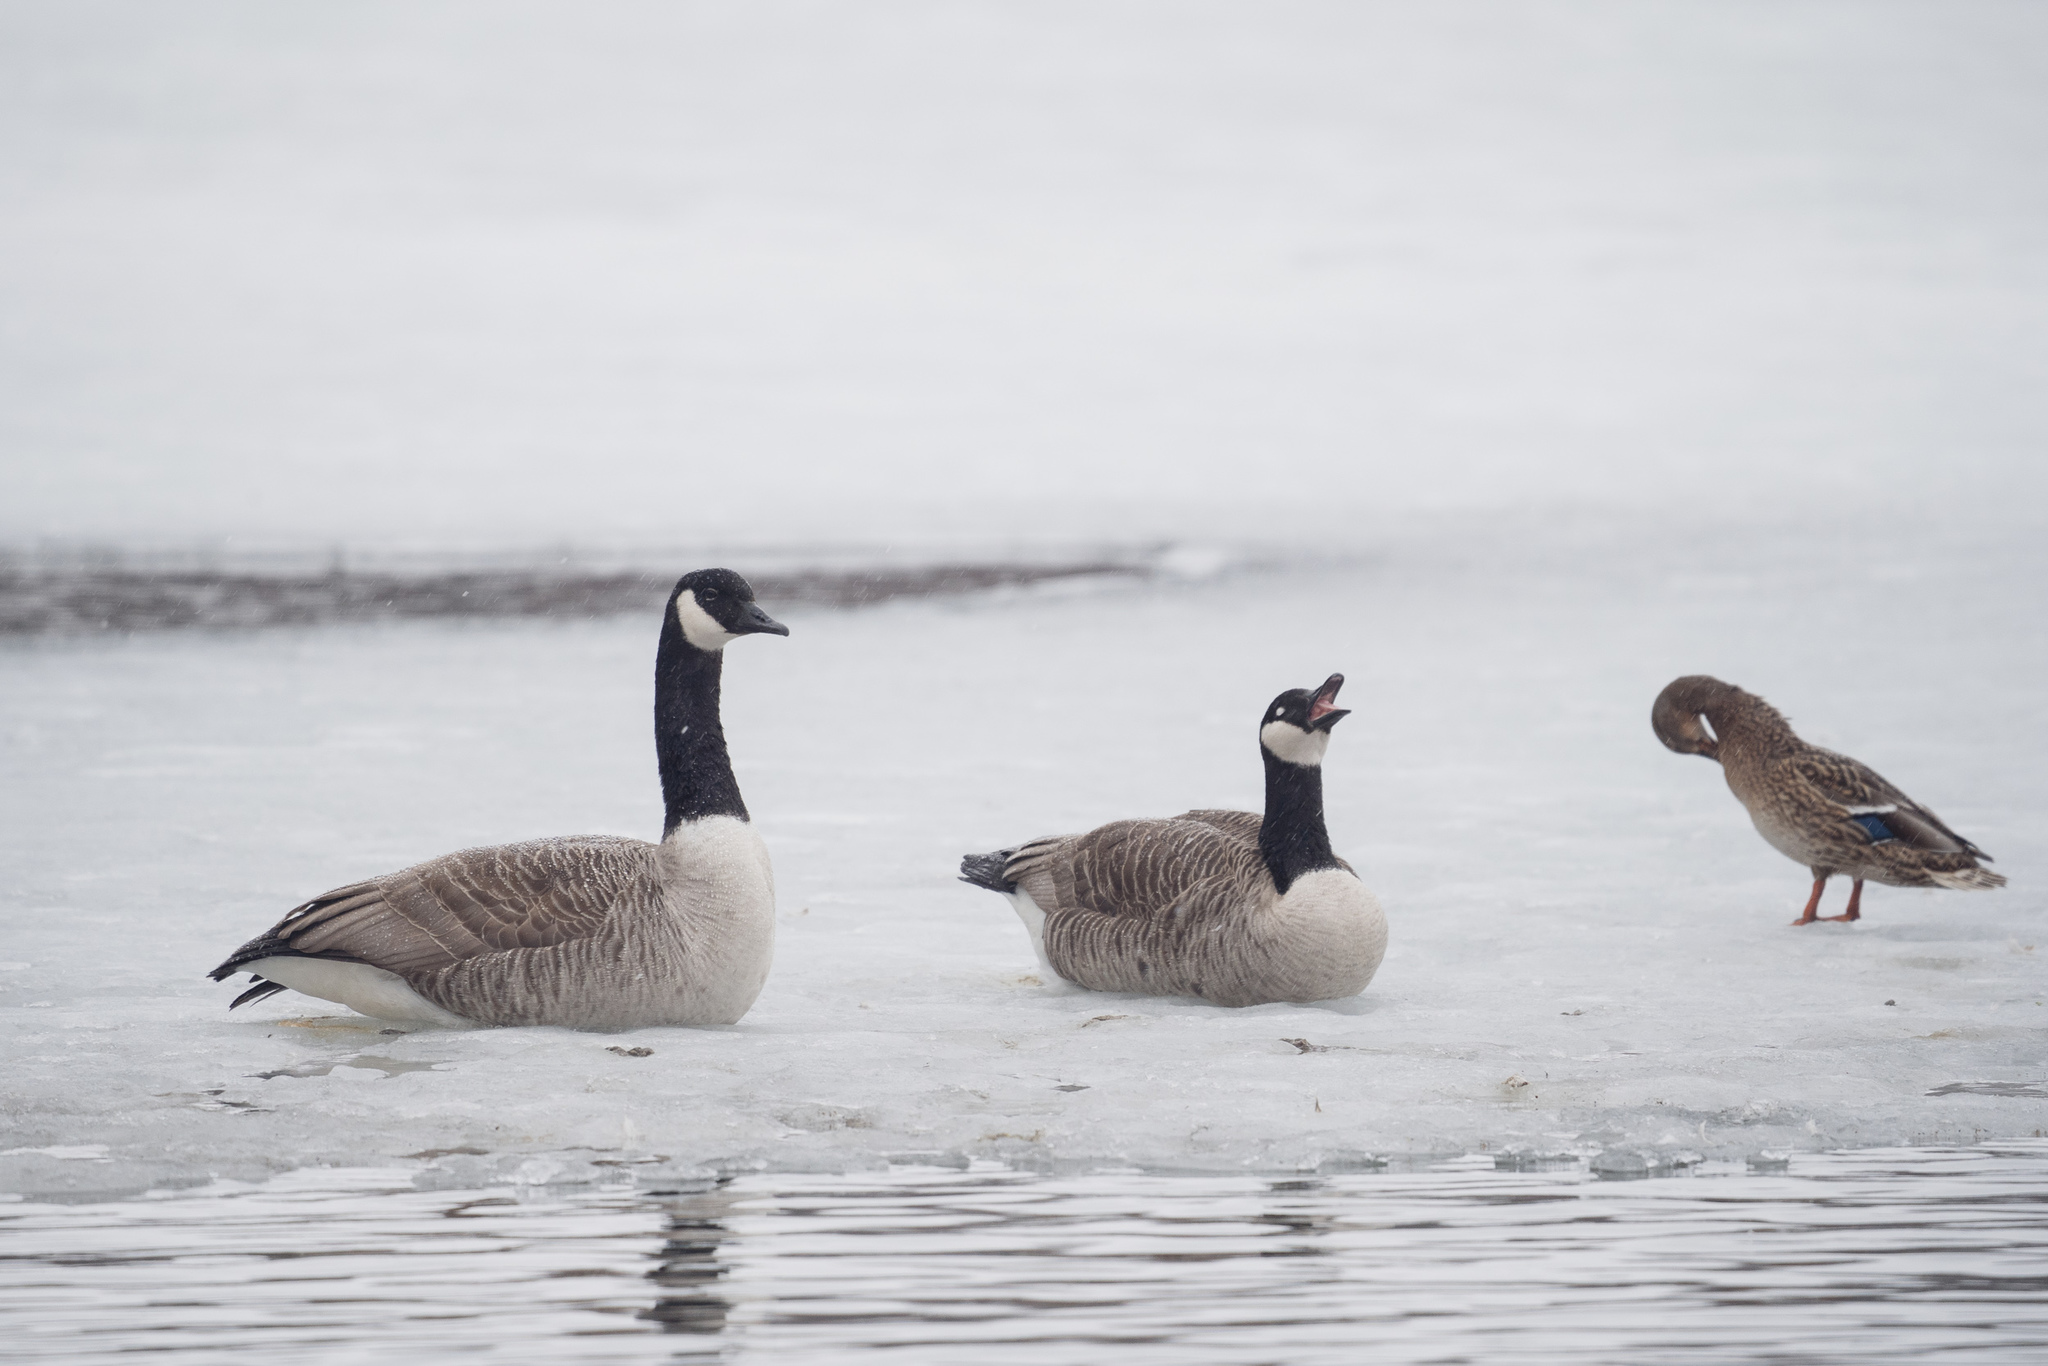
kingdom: Animalia
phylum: Chordata
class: Aves
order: Anseriformes
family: Anatidae
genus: Branta
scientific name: Branta canadensis
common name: Canada goose
